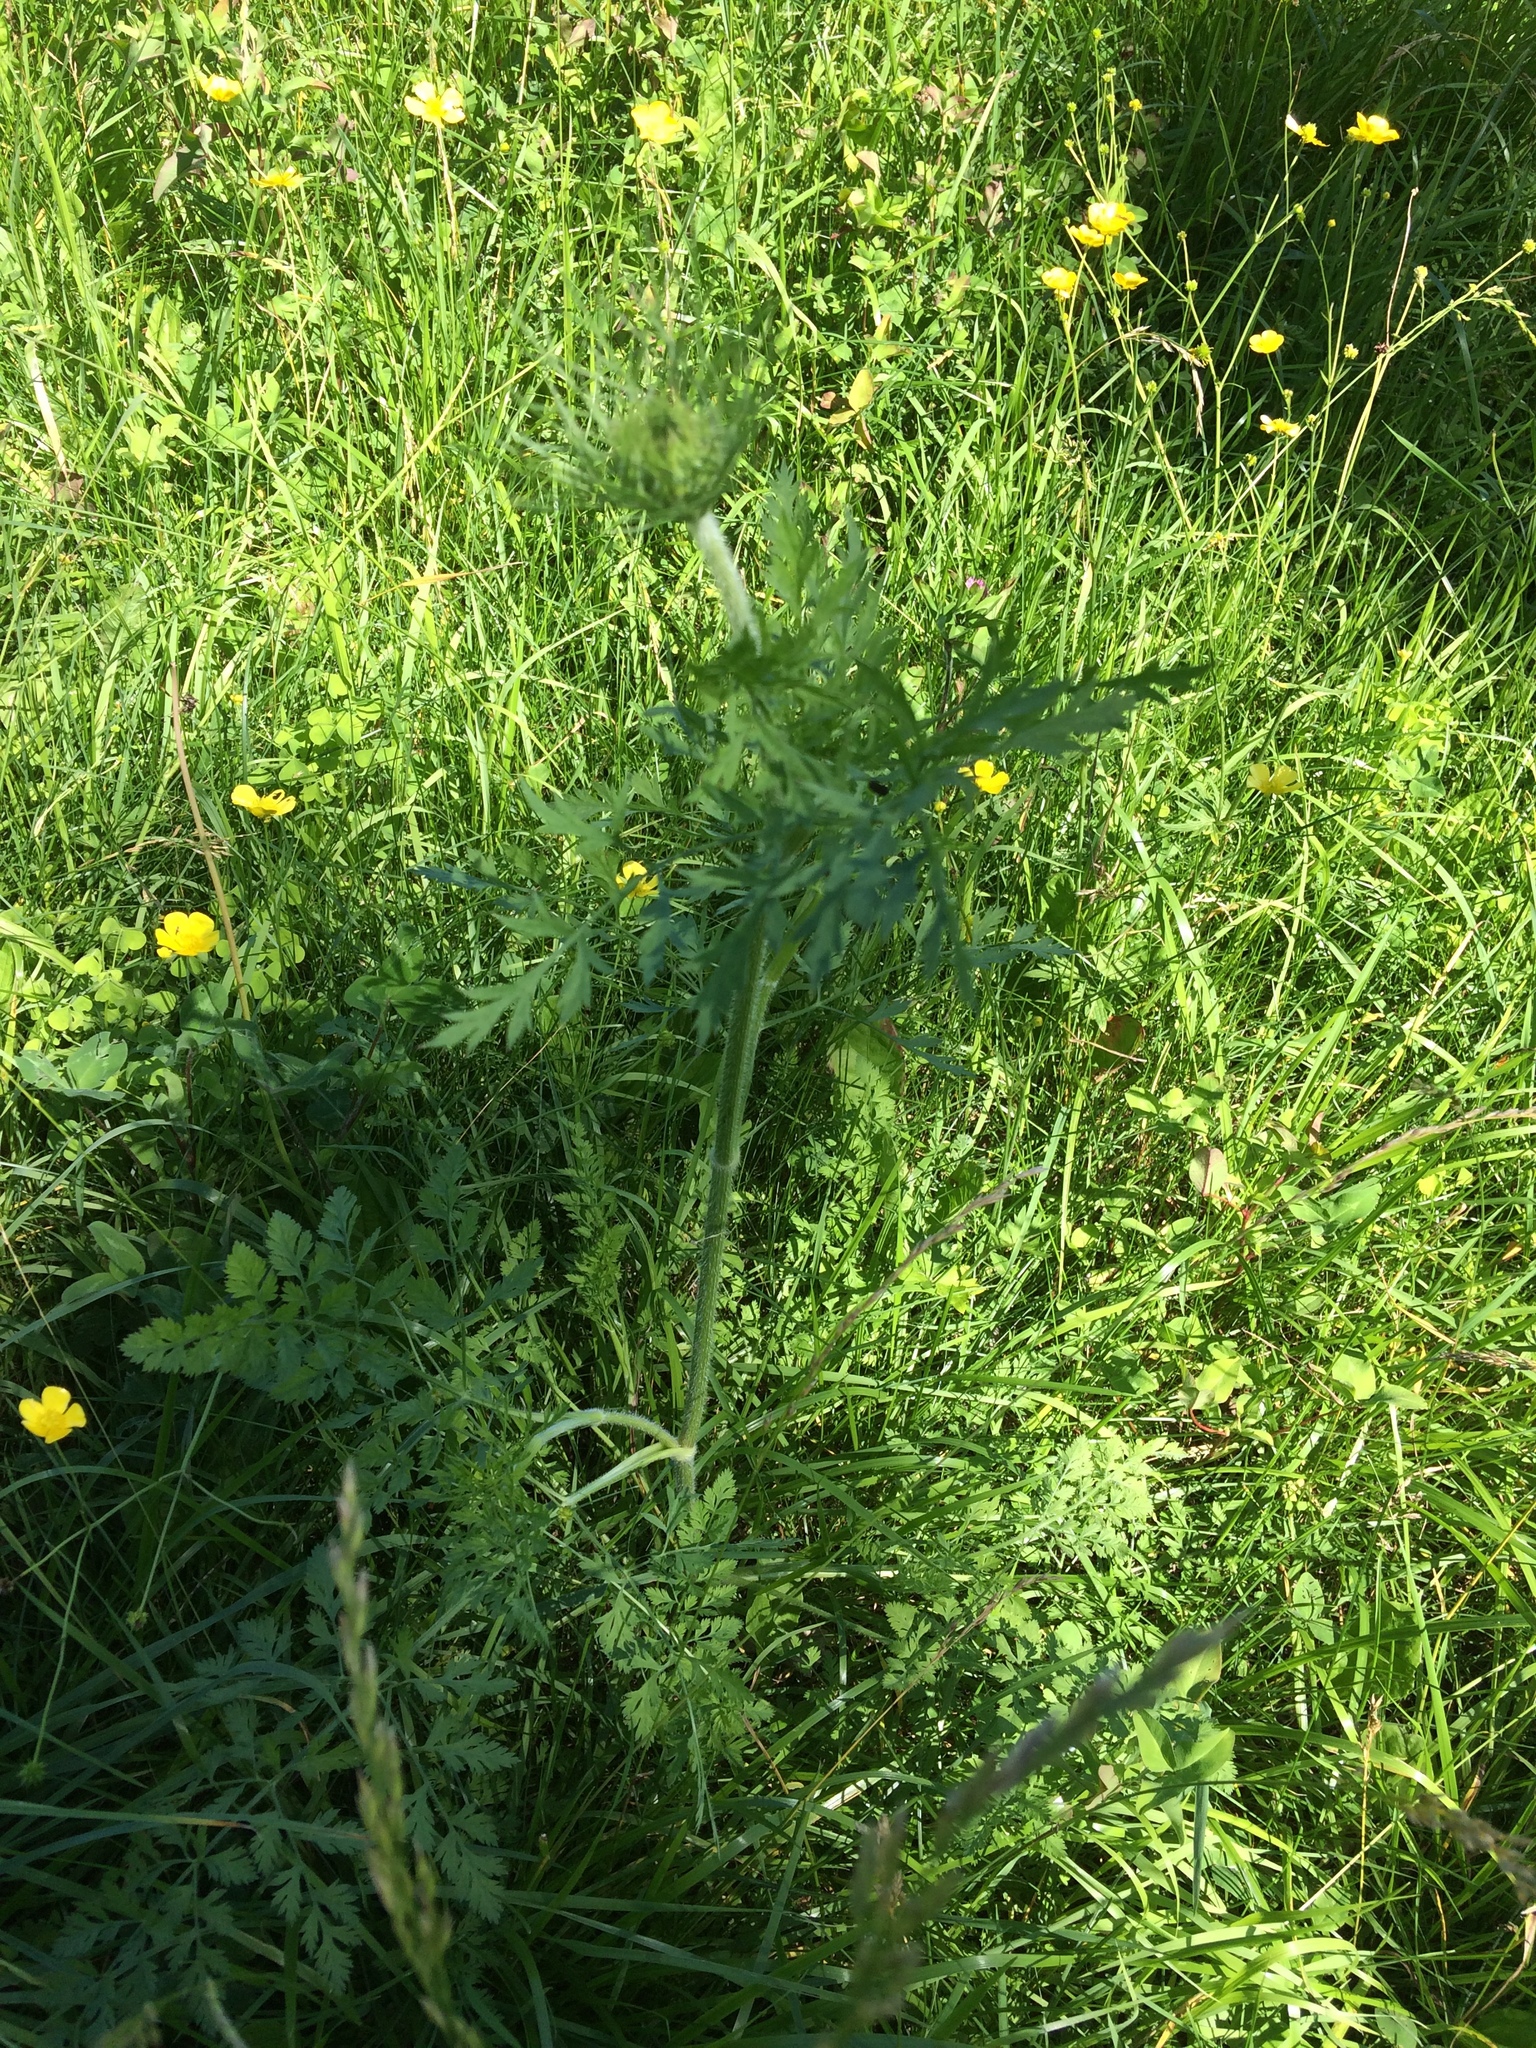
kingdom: Plantae
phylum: Tracheophyta
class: Magnoliopsida
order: Apiales
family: Apiaceae
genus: Daucus
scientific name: Daucus carota
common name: Wild carrot
